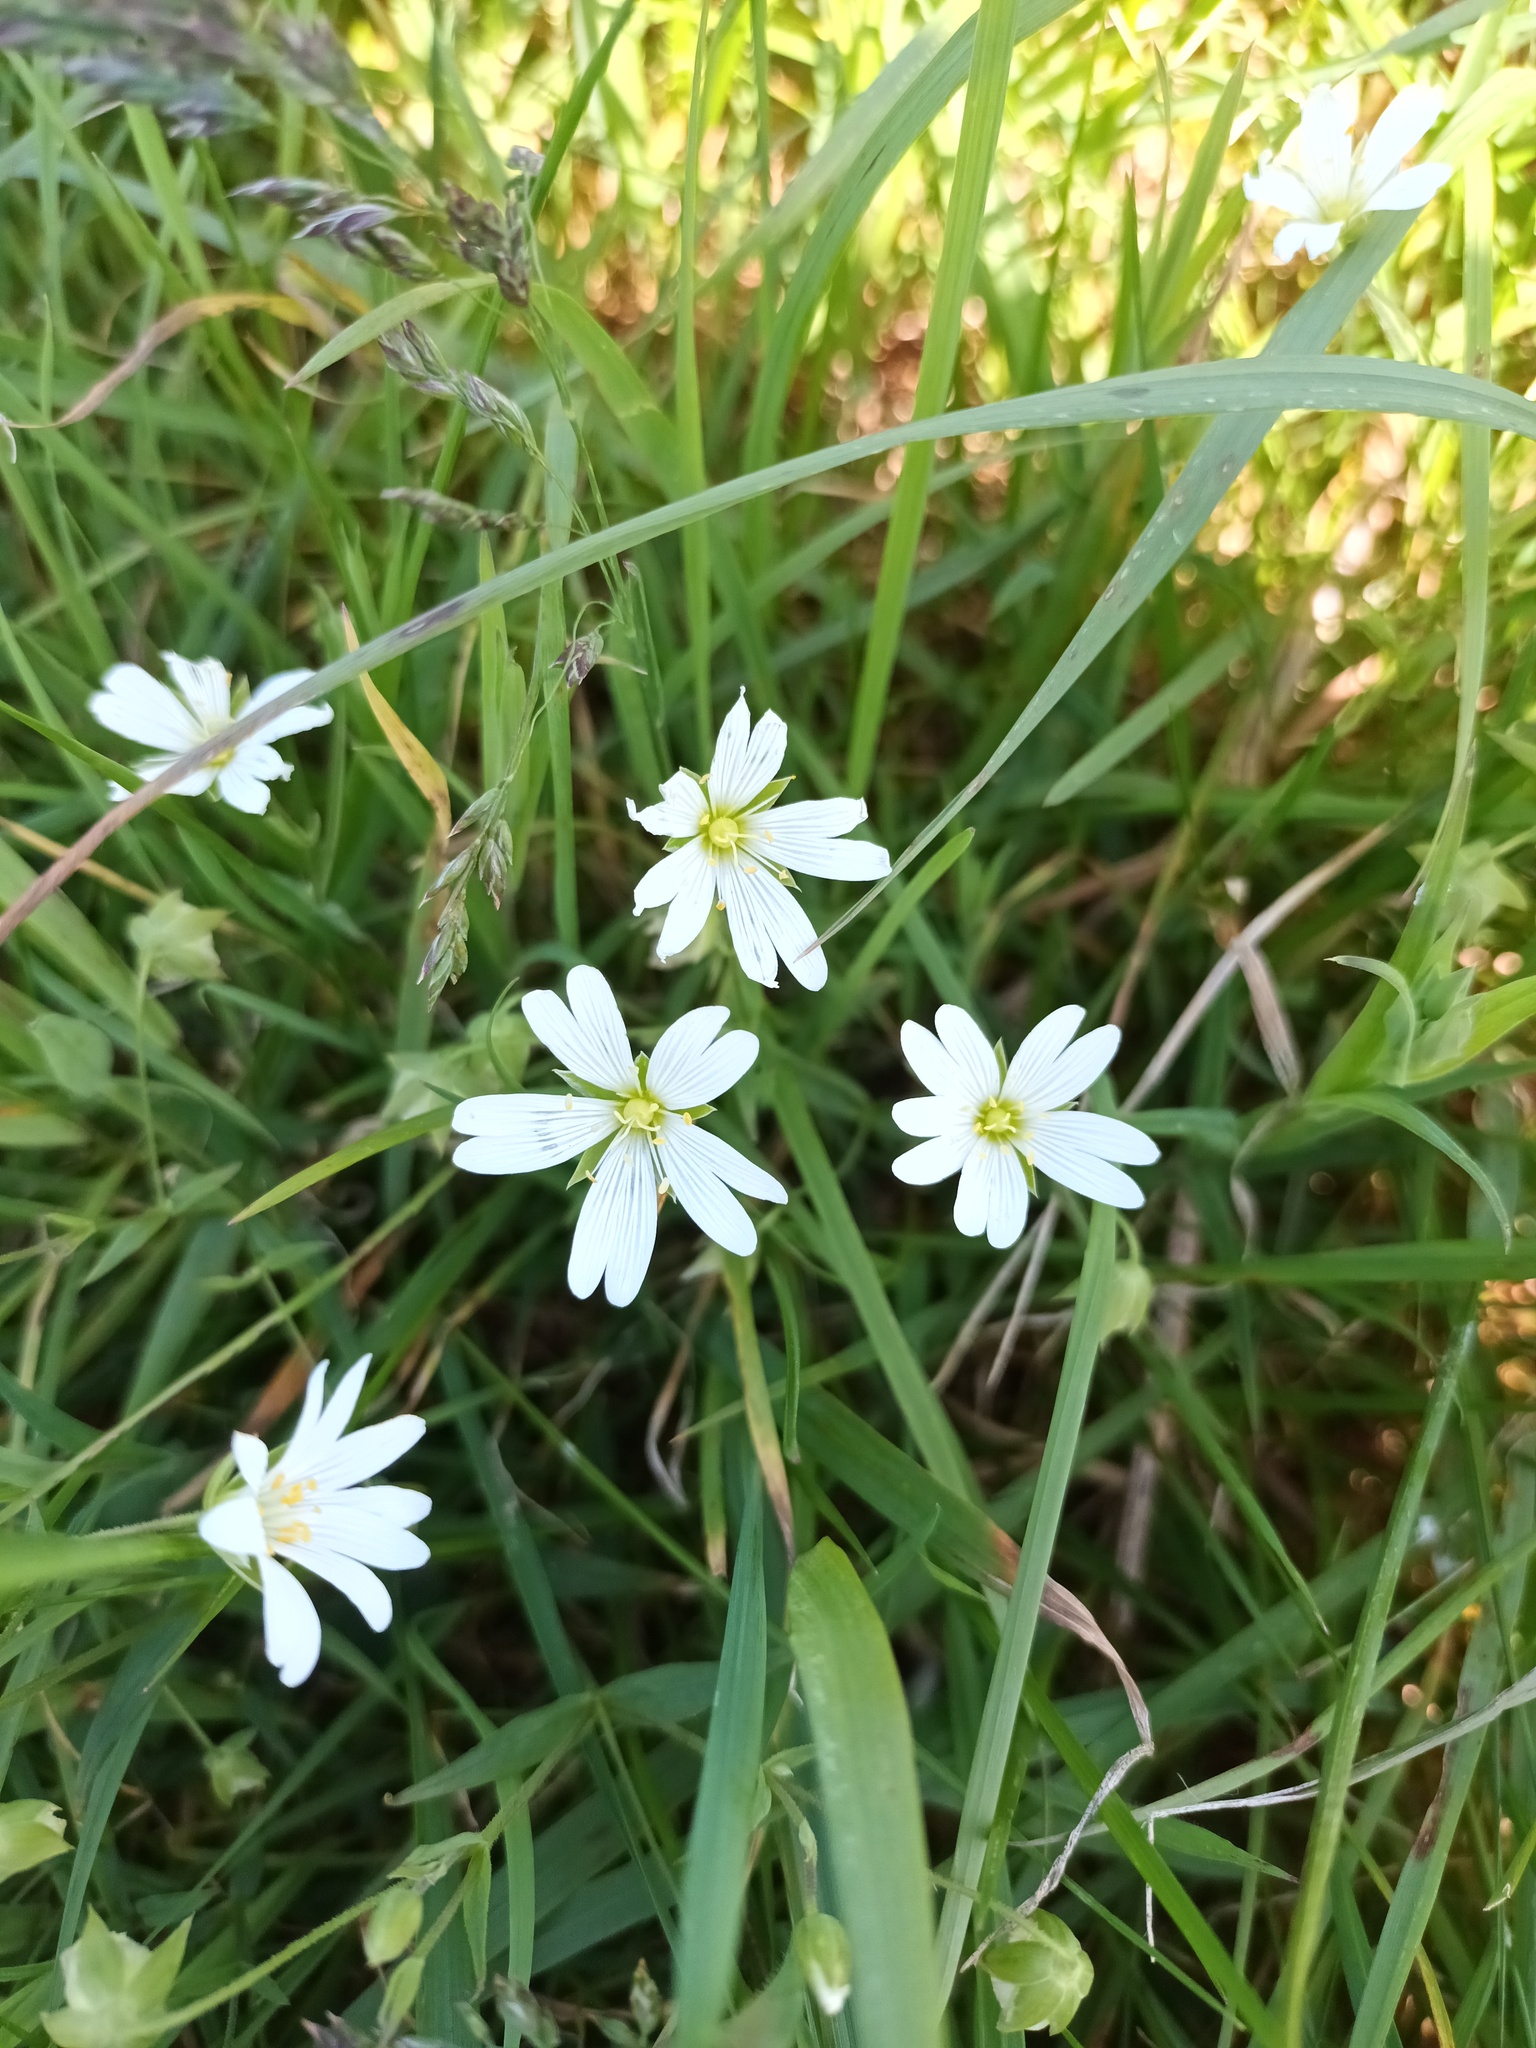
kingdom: Plantae
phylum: Tracheophyta
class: Magnoliopsida
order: Caryophyllales
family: Caryophyllaceae
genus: Rabelera
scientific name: Rabelera holostea
